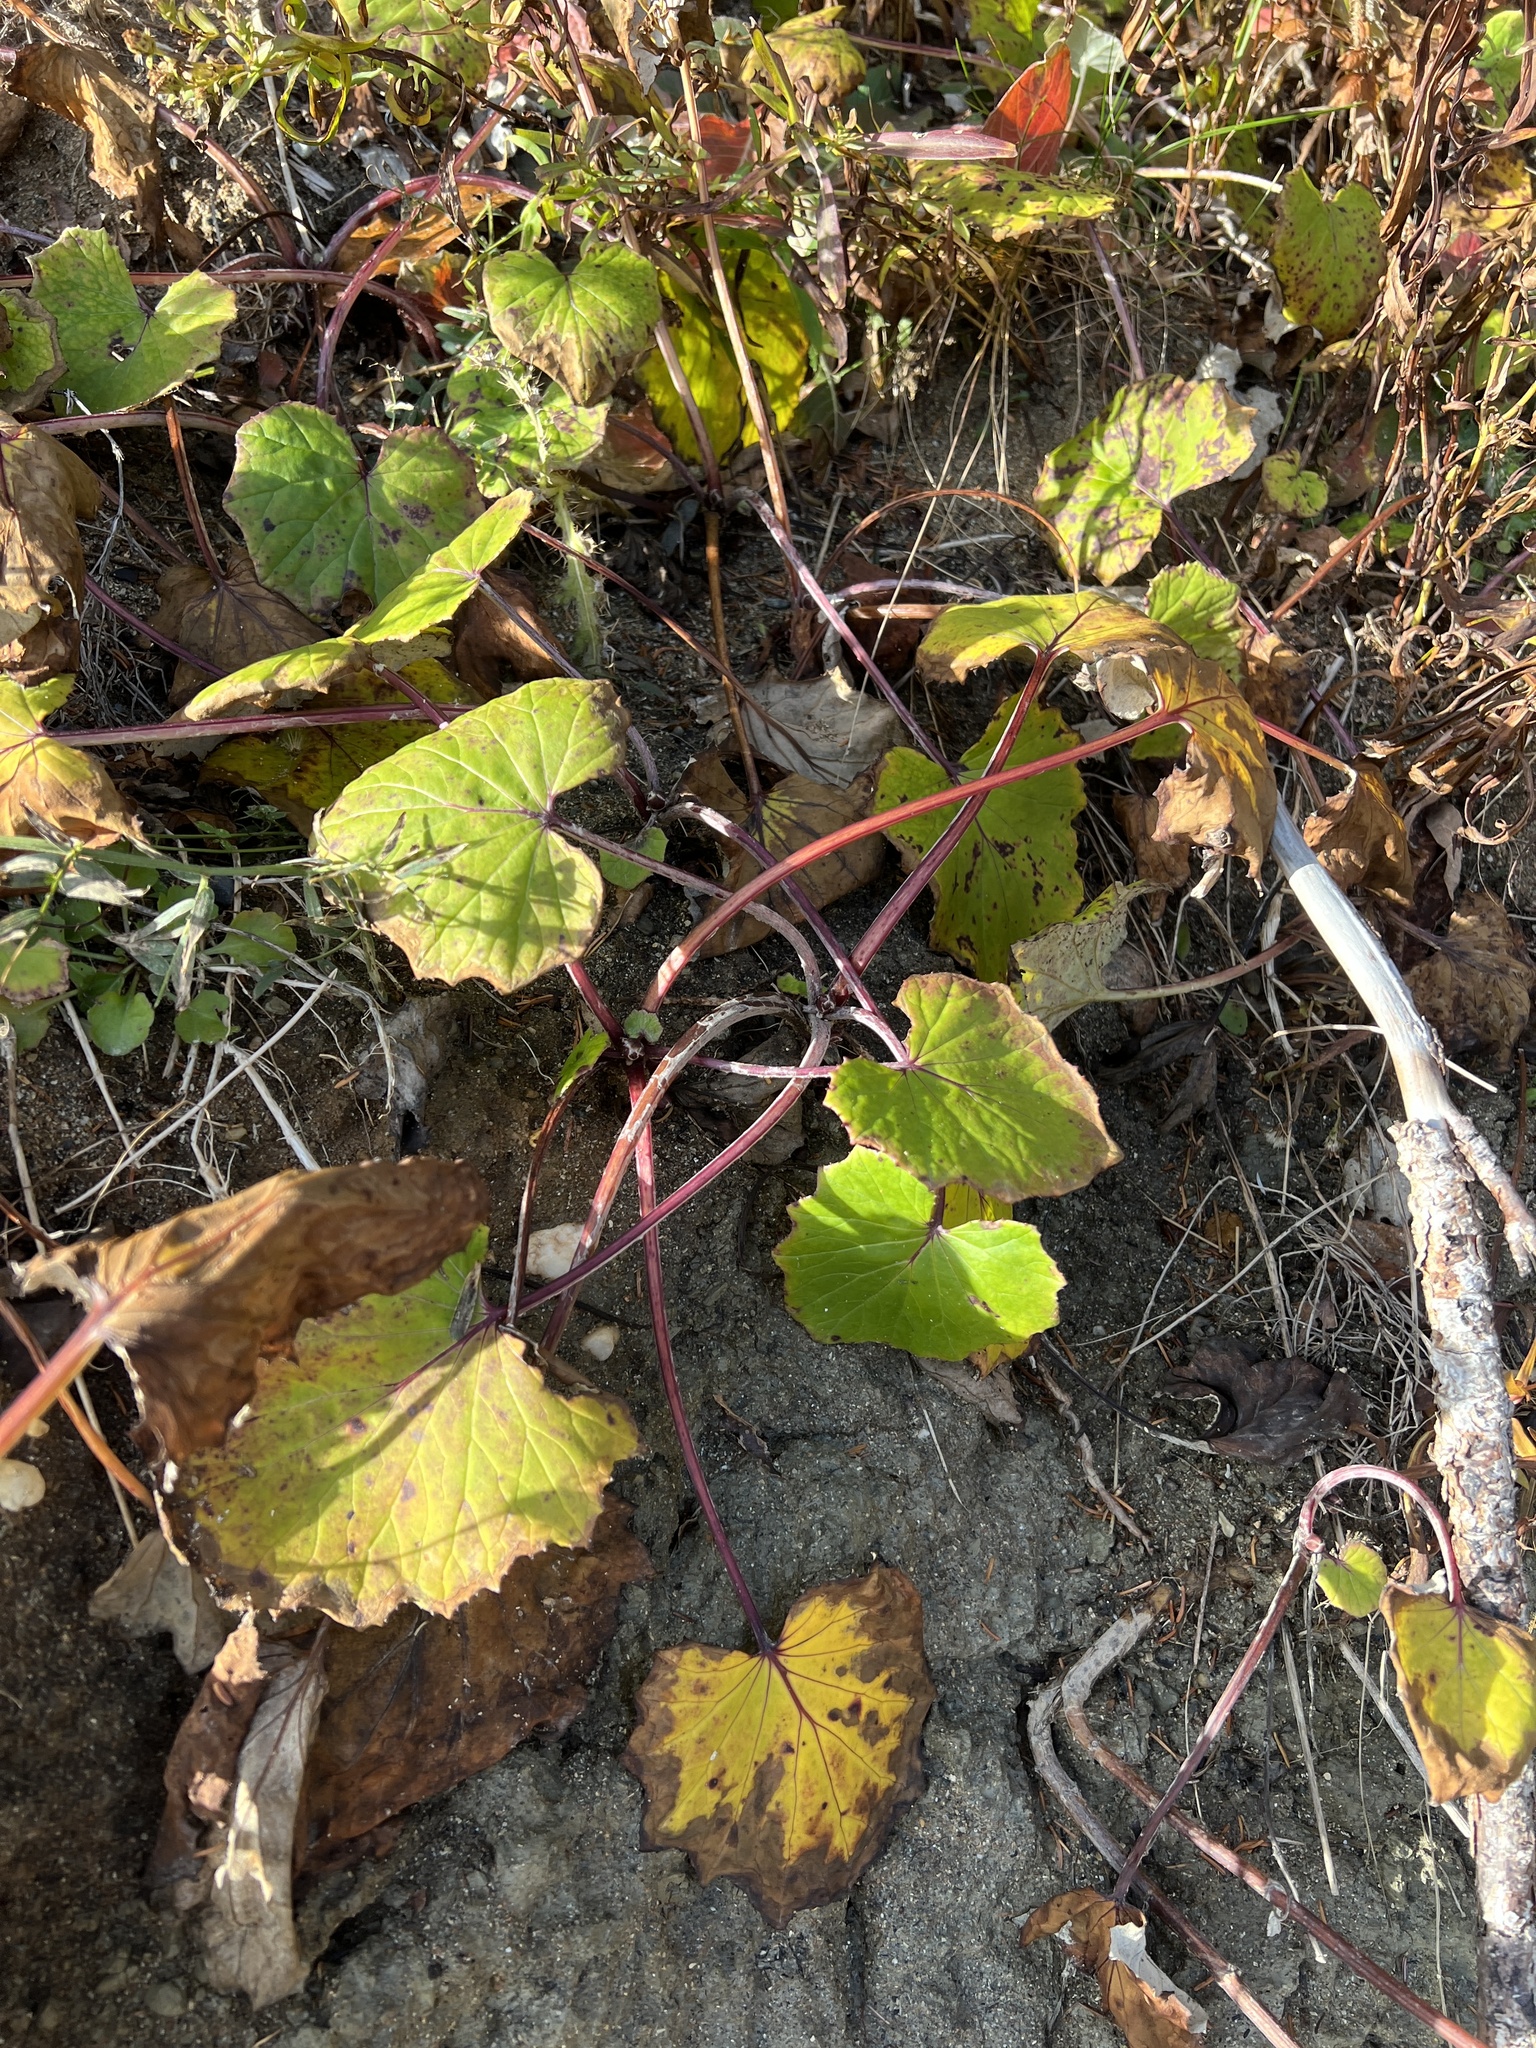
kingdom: Plantae
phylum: Tracheophyta
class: Magnoliopsida
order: Asterales
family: Asteraceae
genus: Tussilago
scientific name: Tussilago farfara
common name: Coltsfoot
